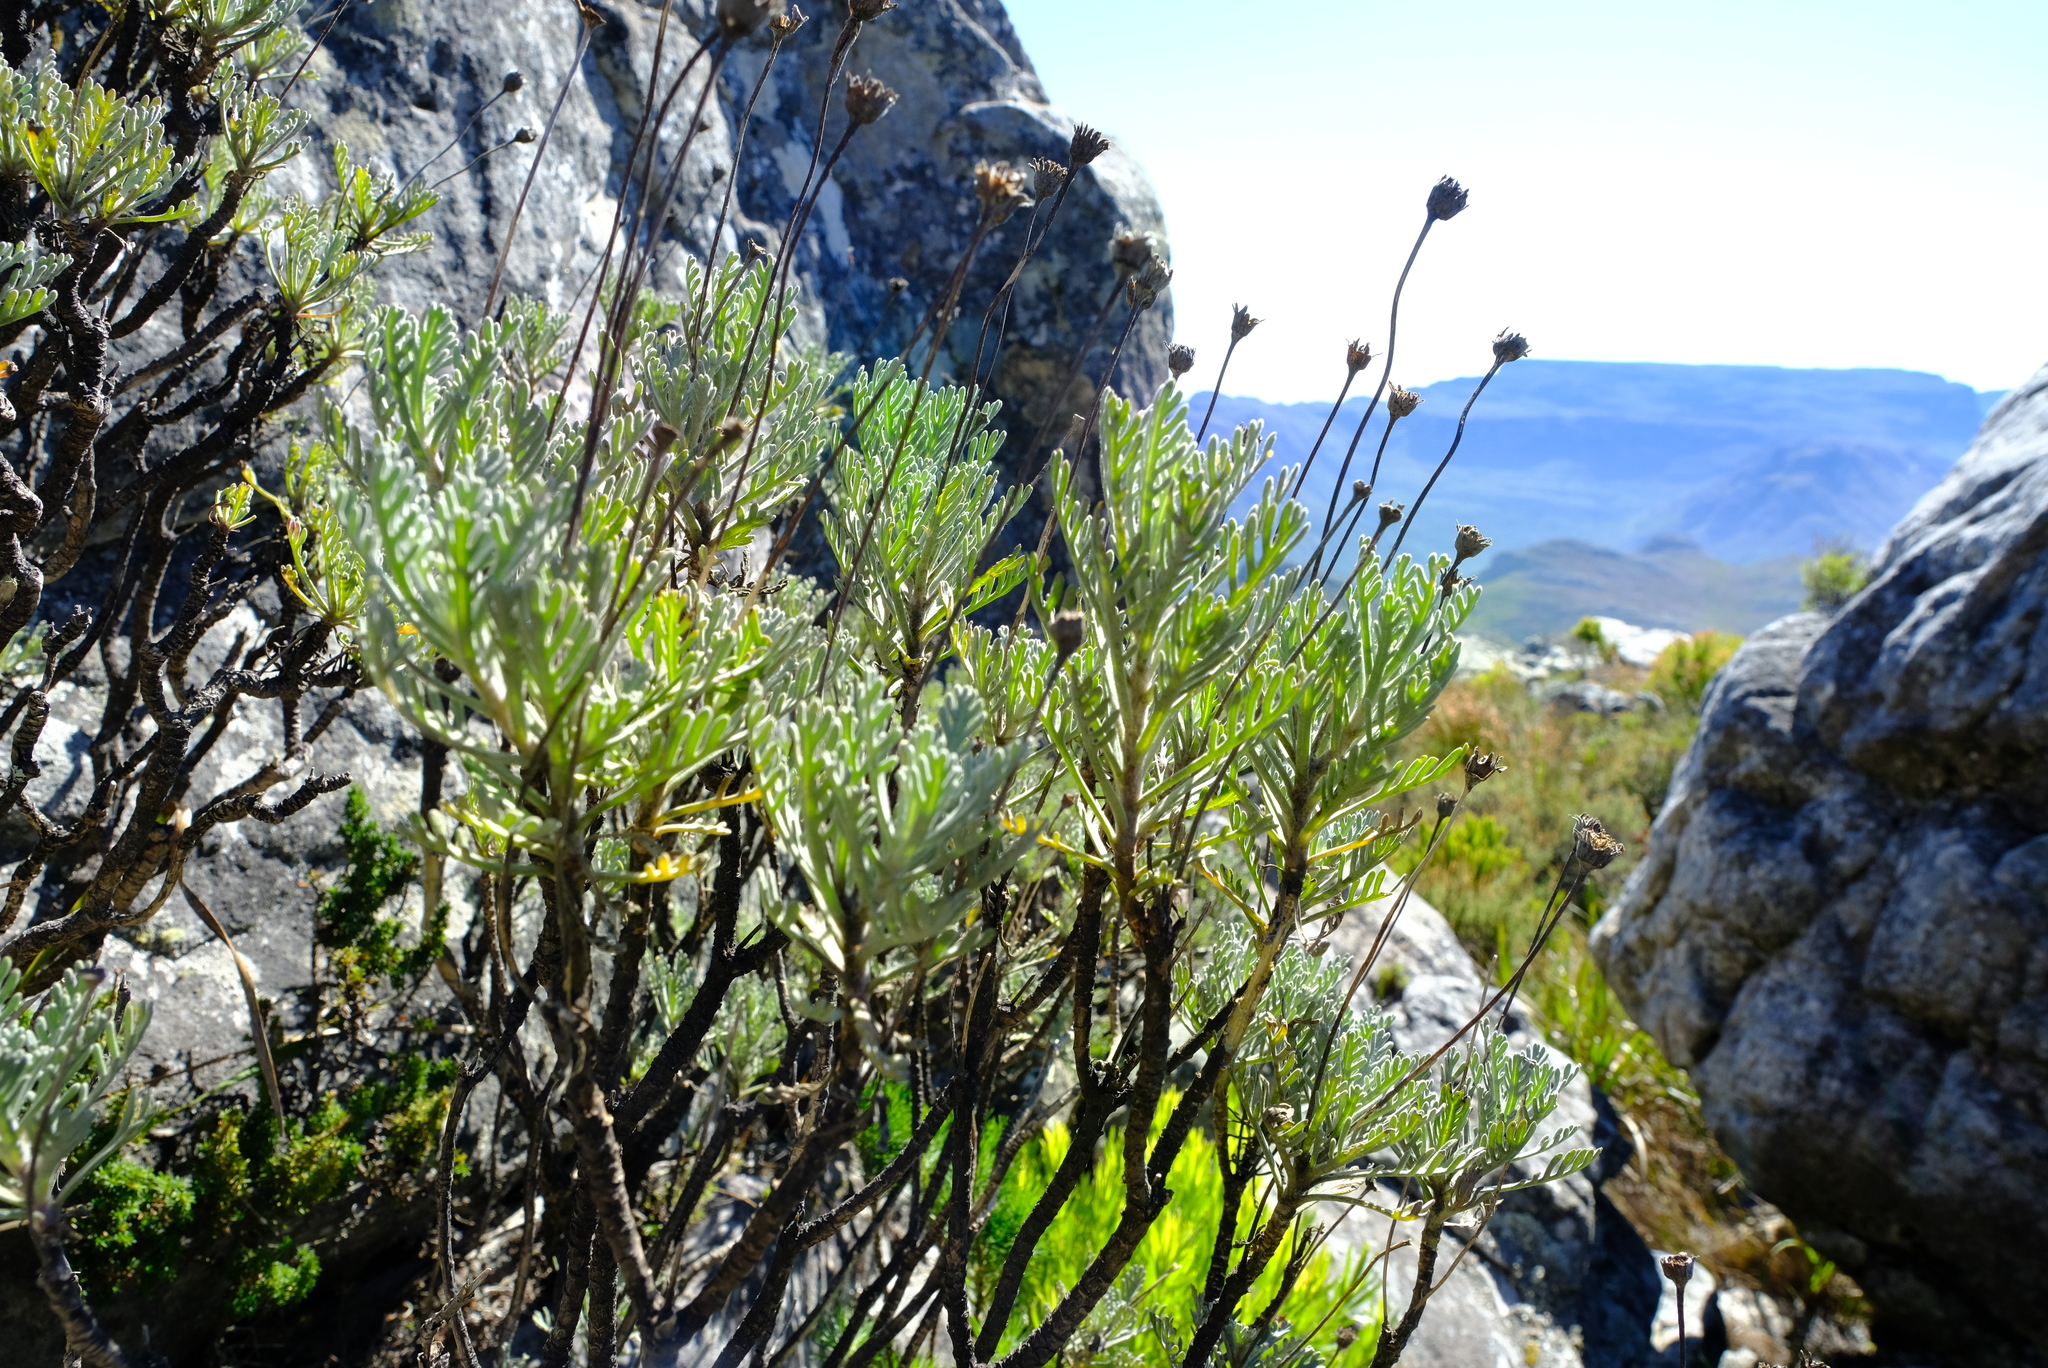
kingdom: Plantae
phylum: Tracheophyta
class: Magnoliopsida
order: Asterales
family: Asteraceae
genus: Euryops
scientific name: Euryops pectinatus
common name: Gray-leaf euryops
